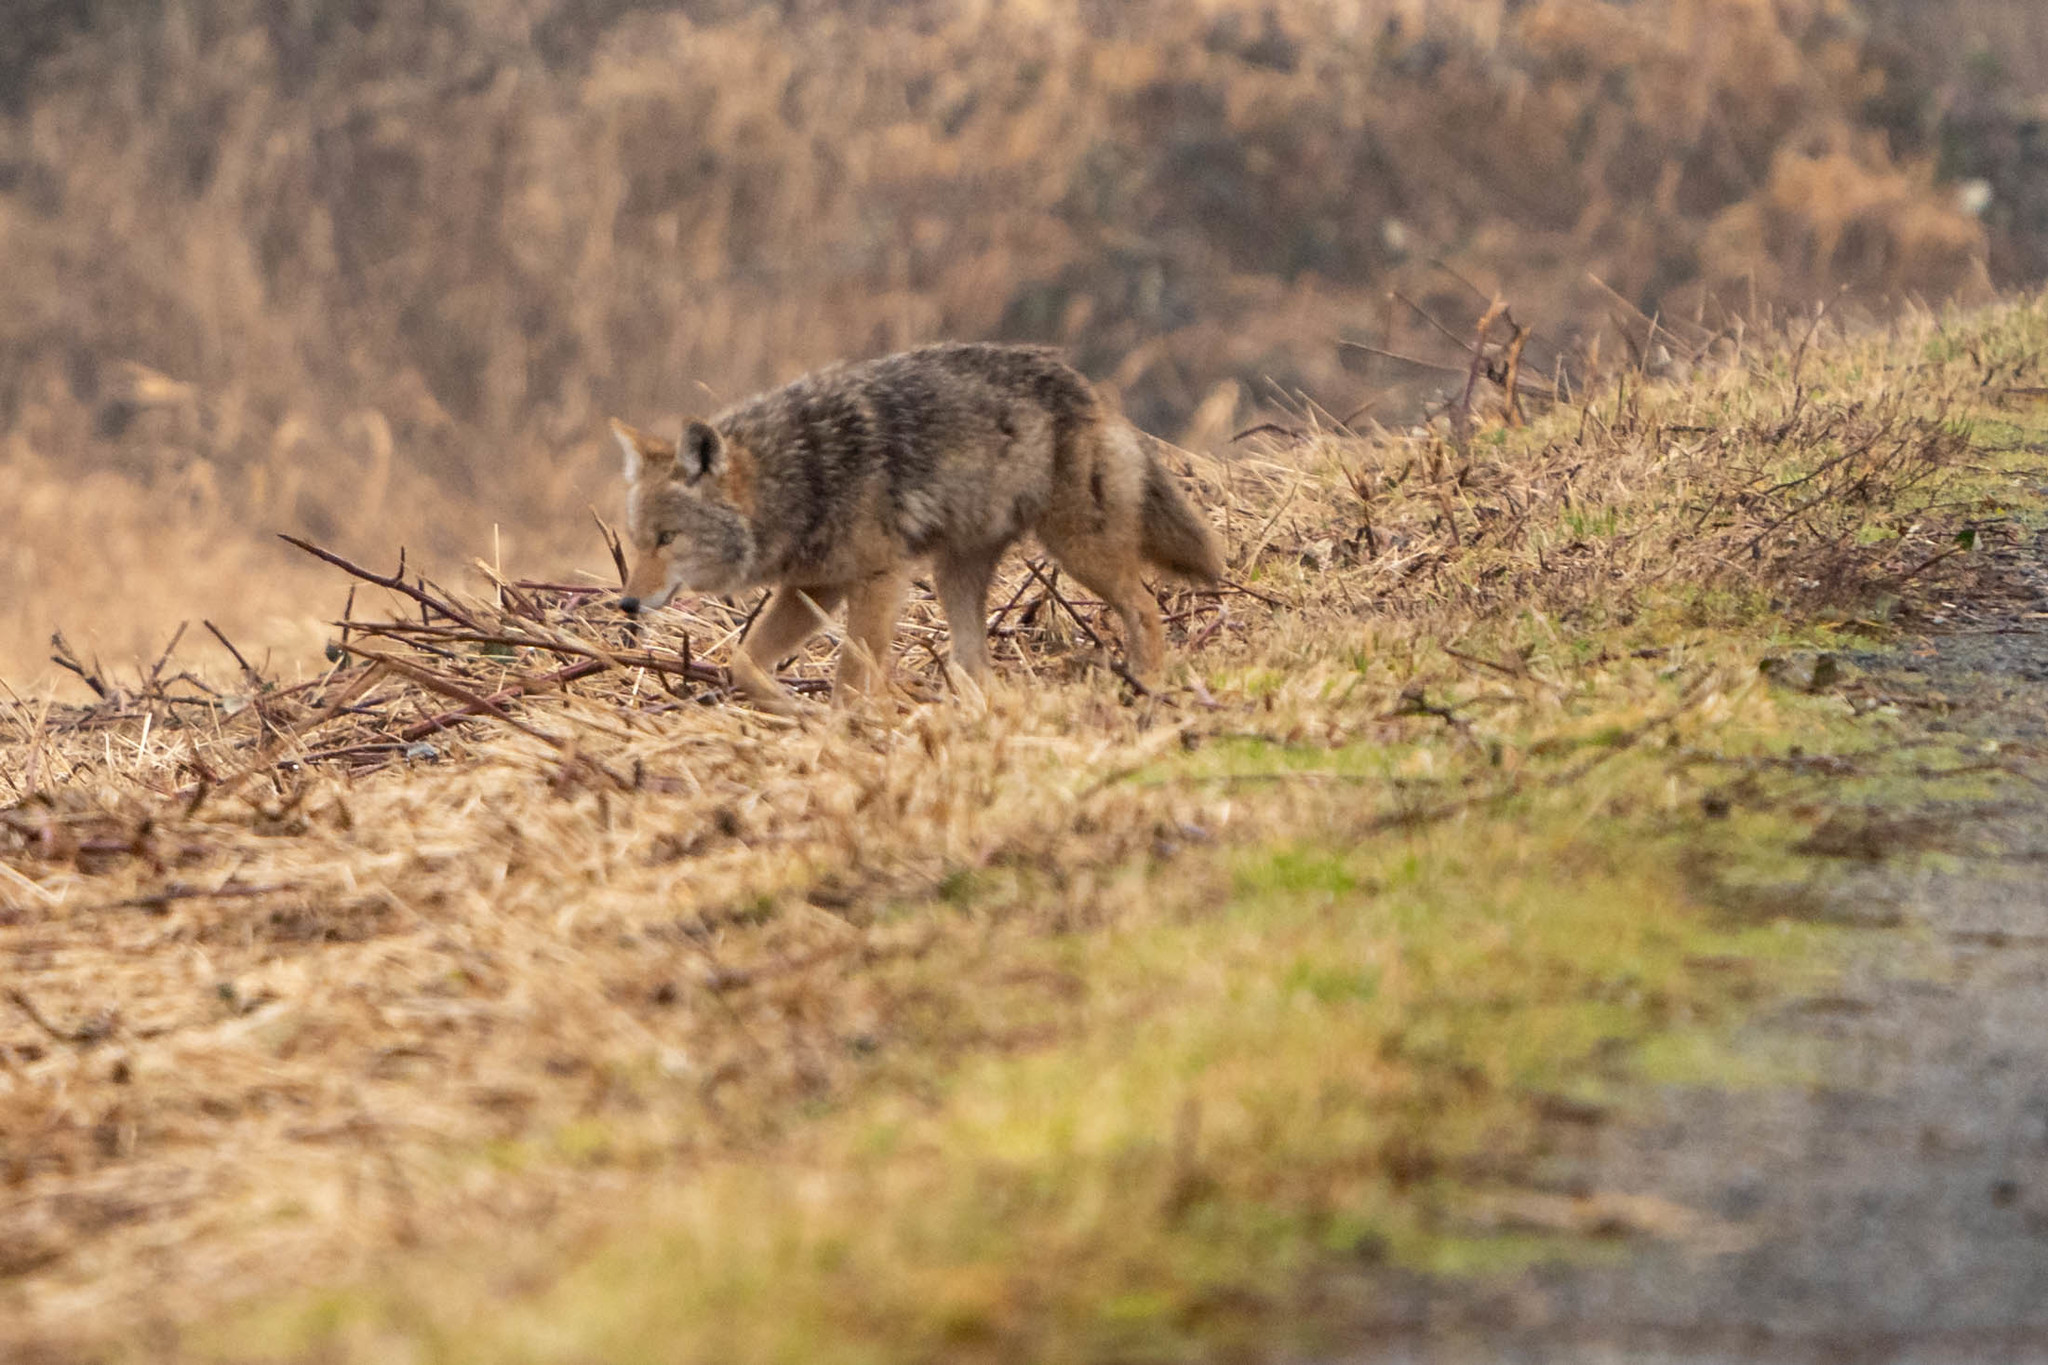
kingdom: Animalia
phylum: Chordata
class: Mammalia
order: Carnivora
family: Canidae
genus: Canis
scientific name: Canis latrans
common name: Coyote
